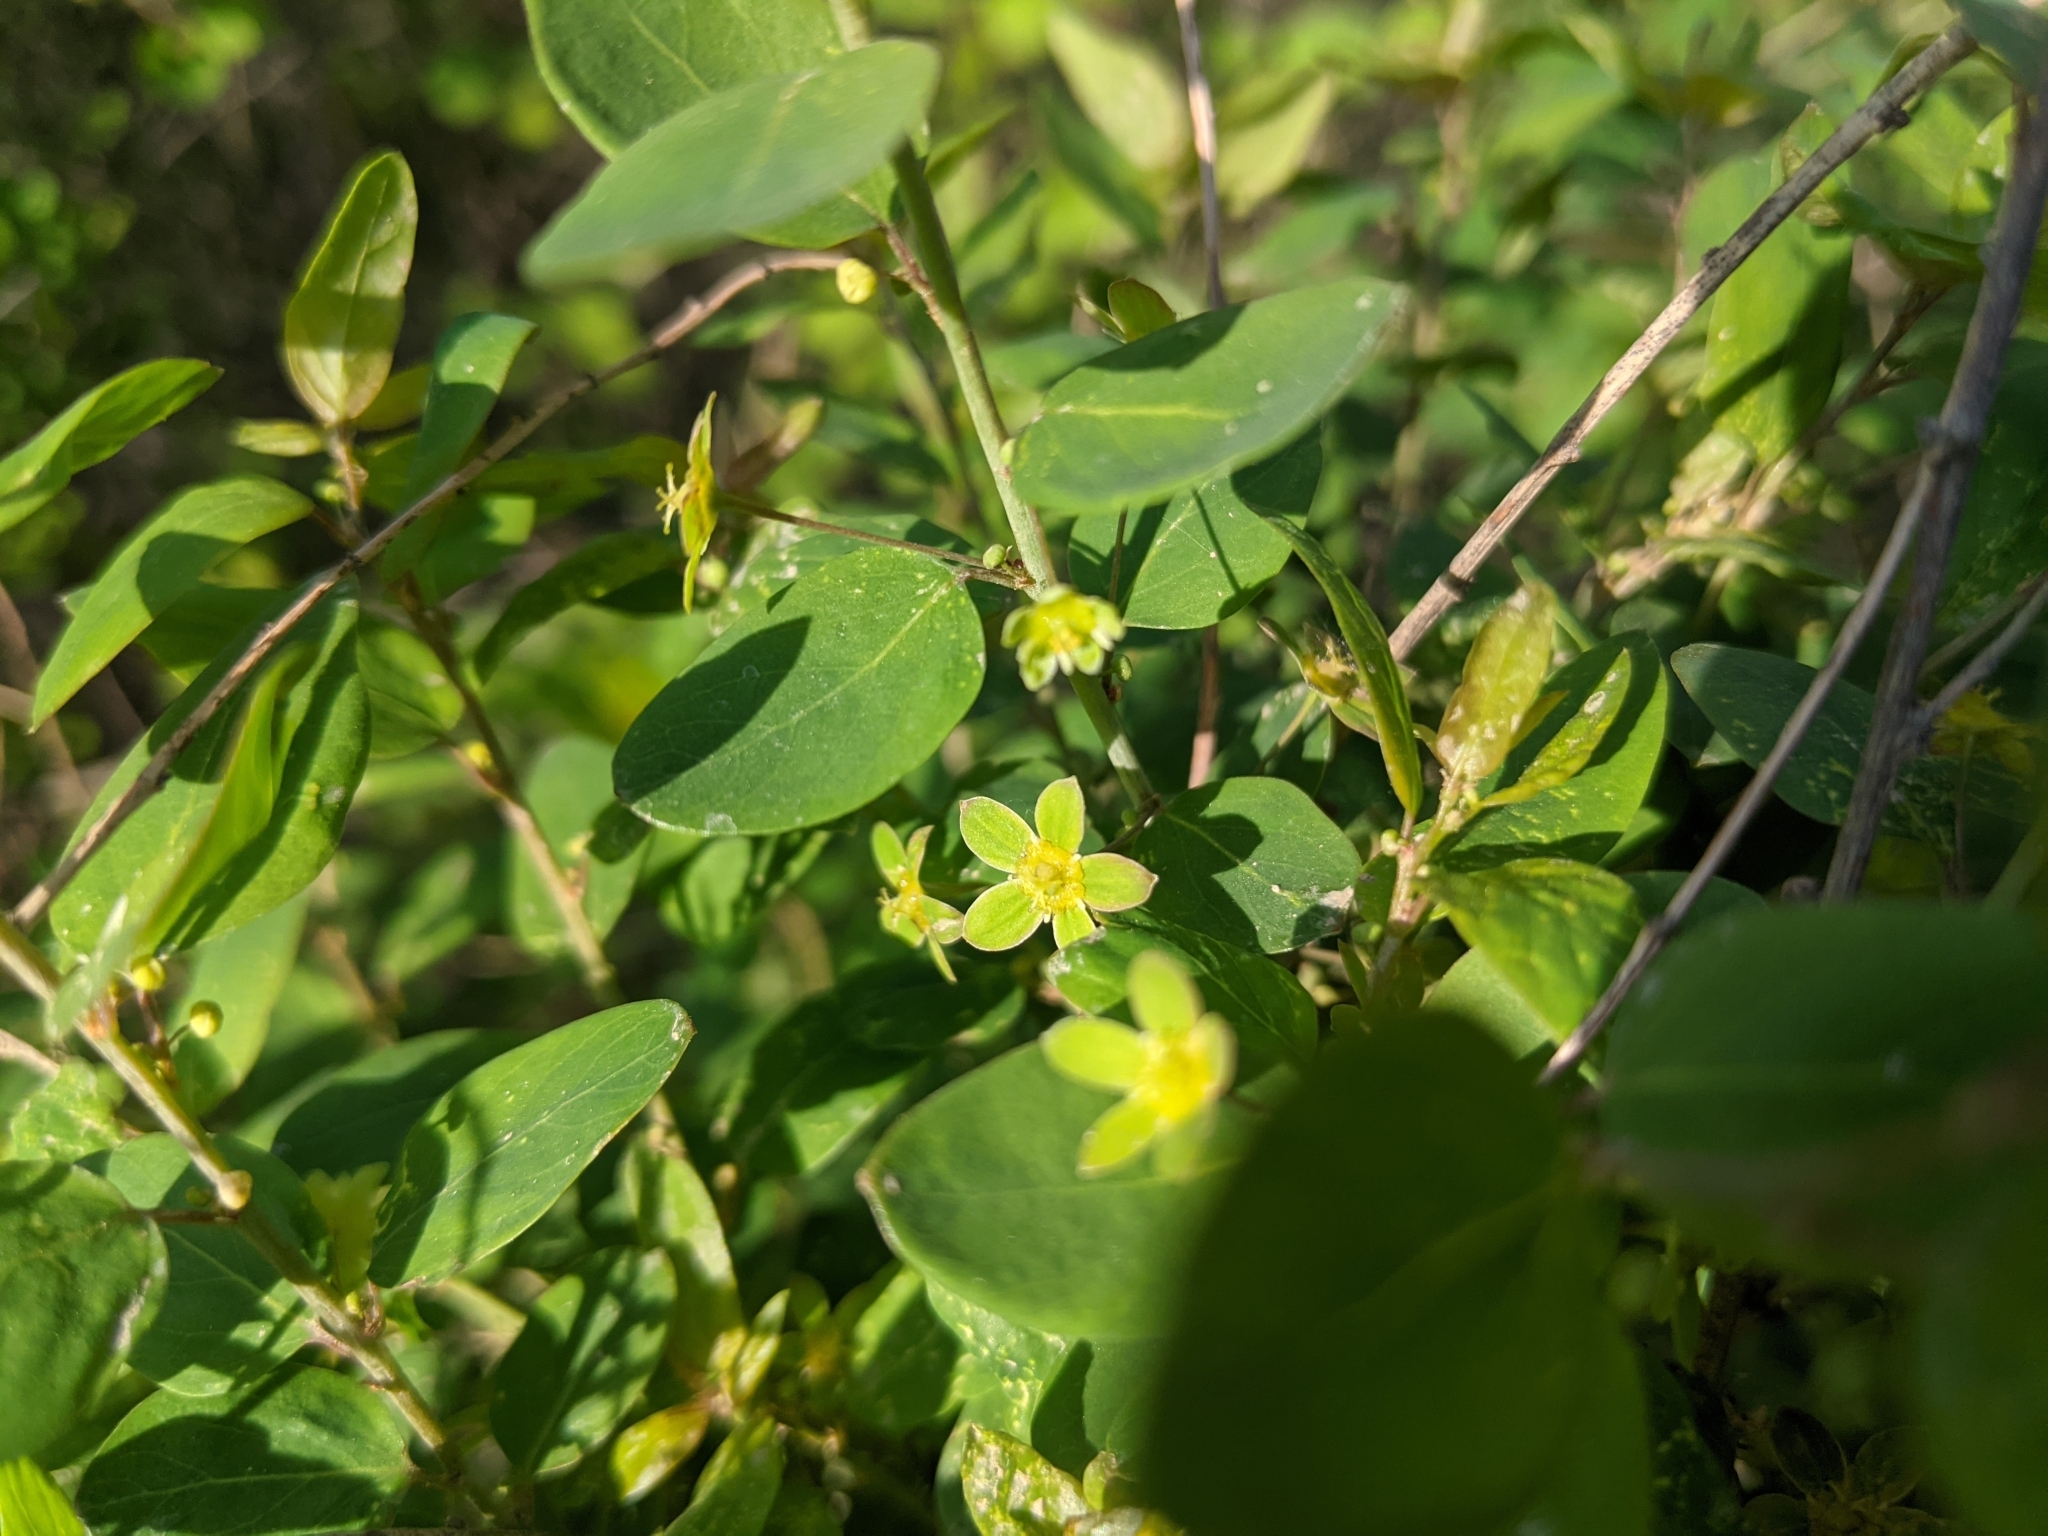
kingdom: Plantae
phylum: Tracheophyta
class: Magnoliopsida
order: Malpighiales
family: Phyllanthaceae
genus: Leptopus
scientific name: Leptopus chinensis
